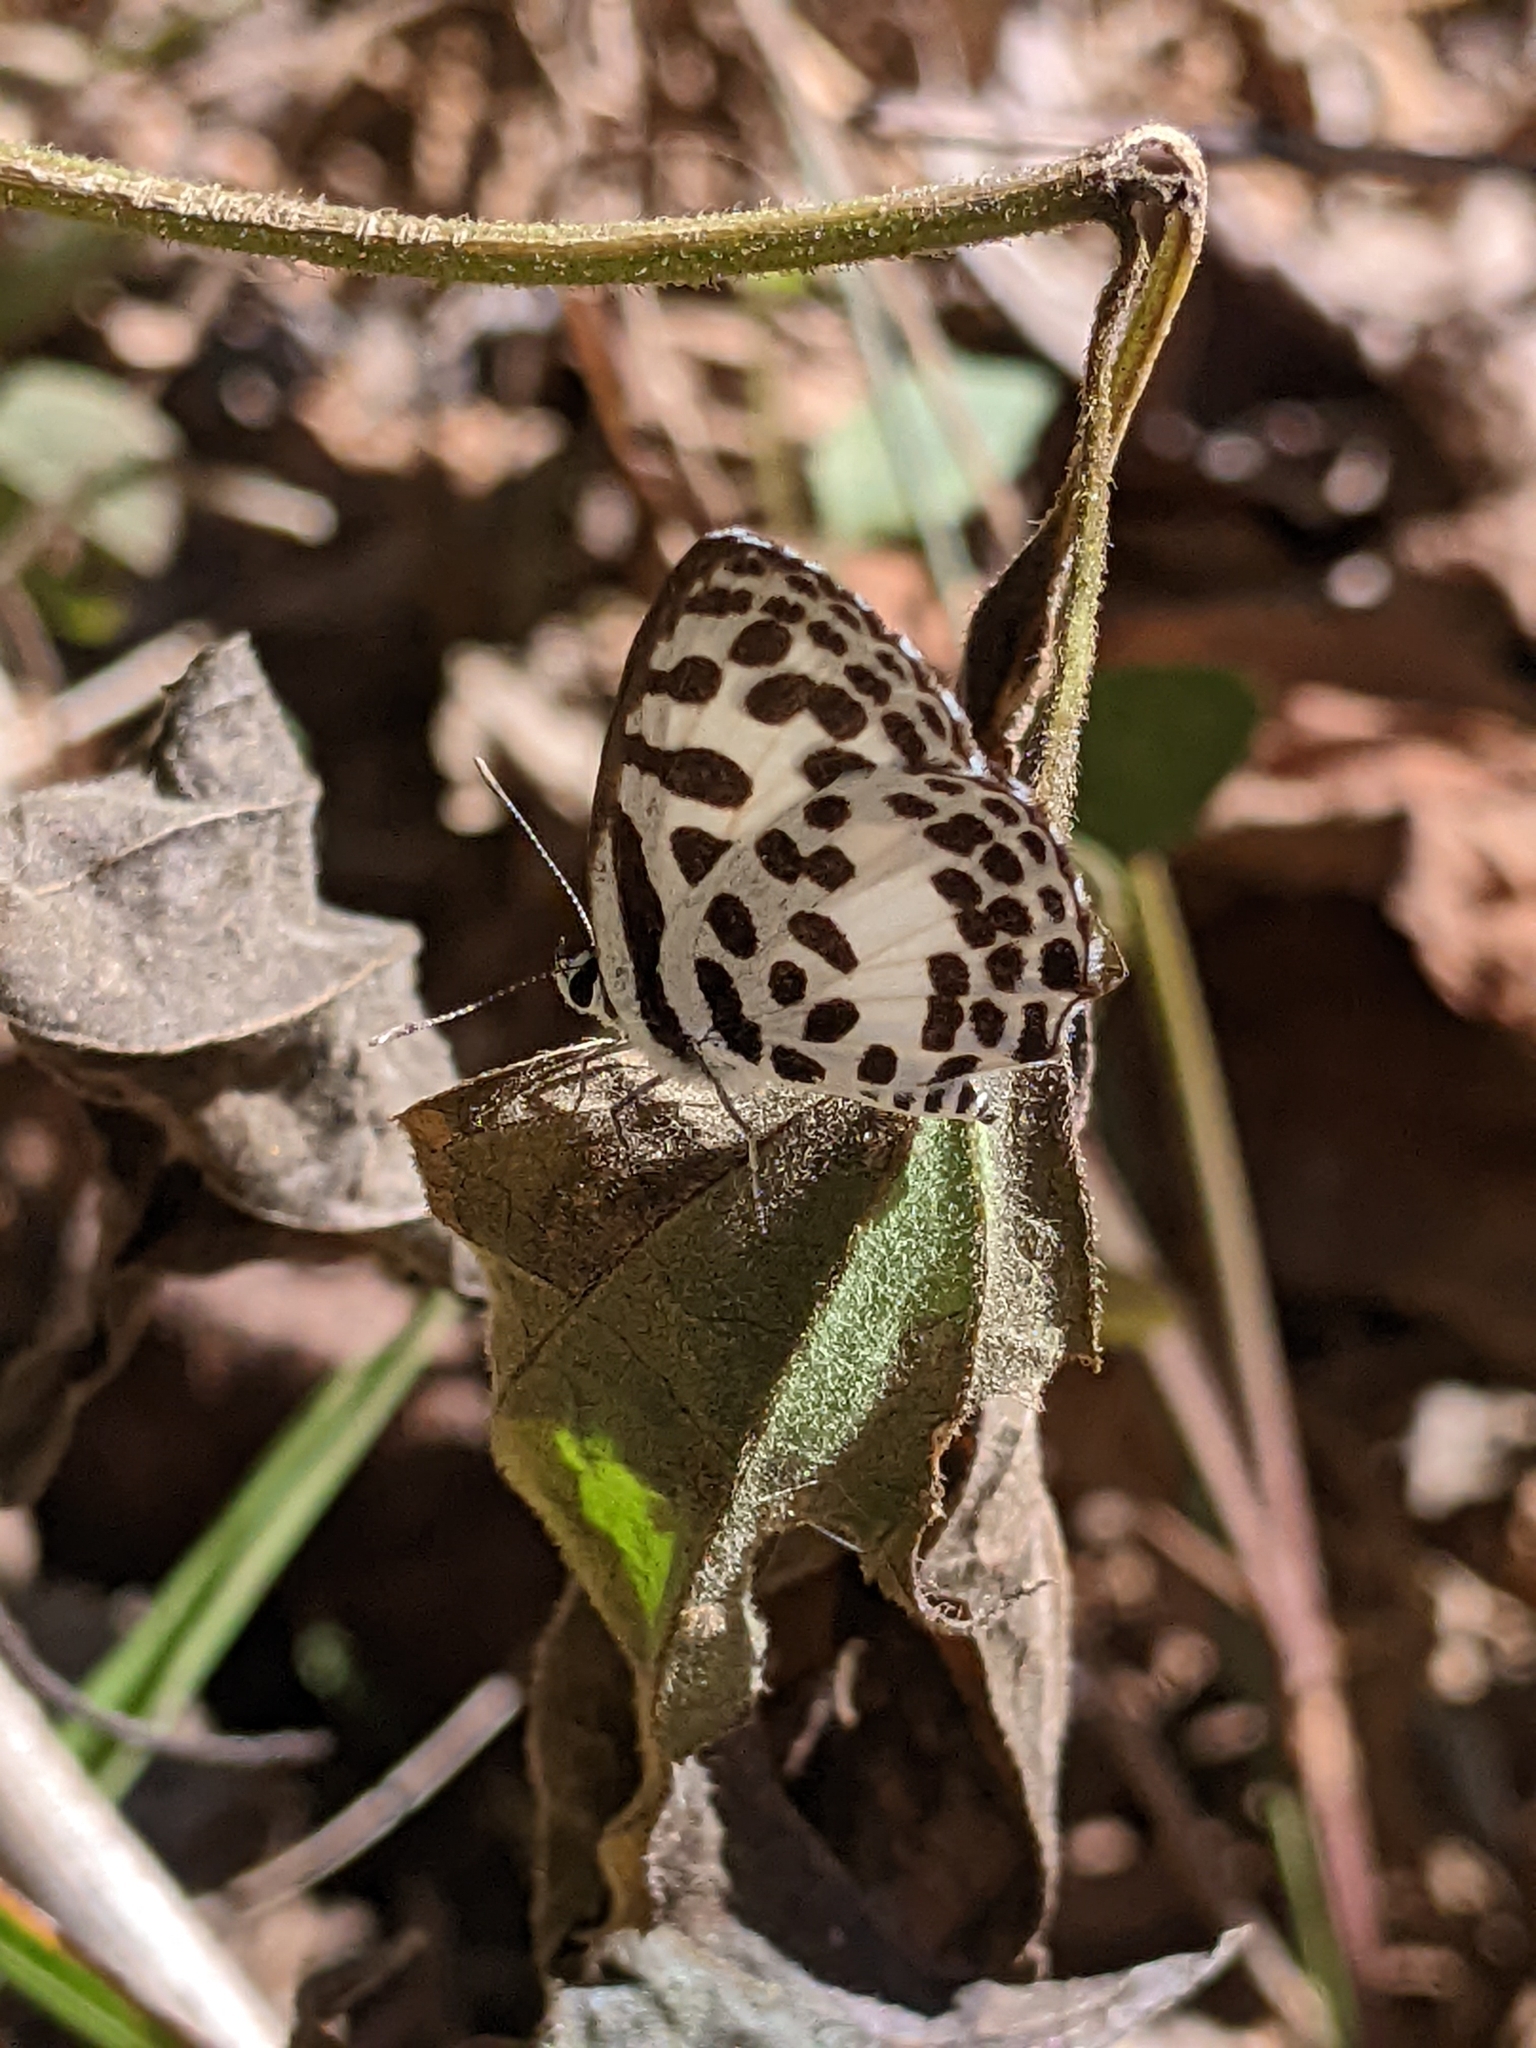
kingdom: Animalia
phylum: Arthropoda
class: Insecta
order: Lepidoptera
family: Lycaenidae
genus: Castalius
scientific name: Castalius rosimon
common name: Common pierrot
